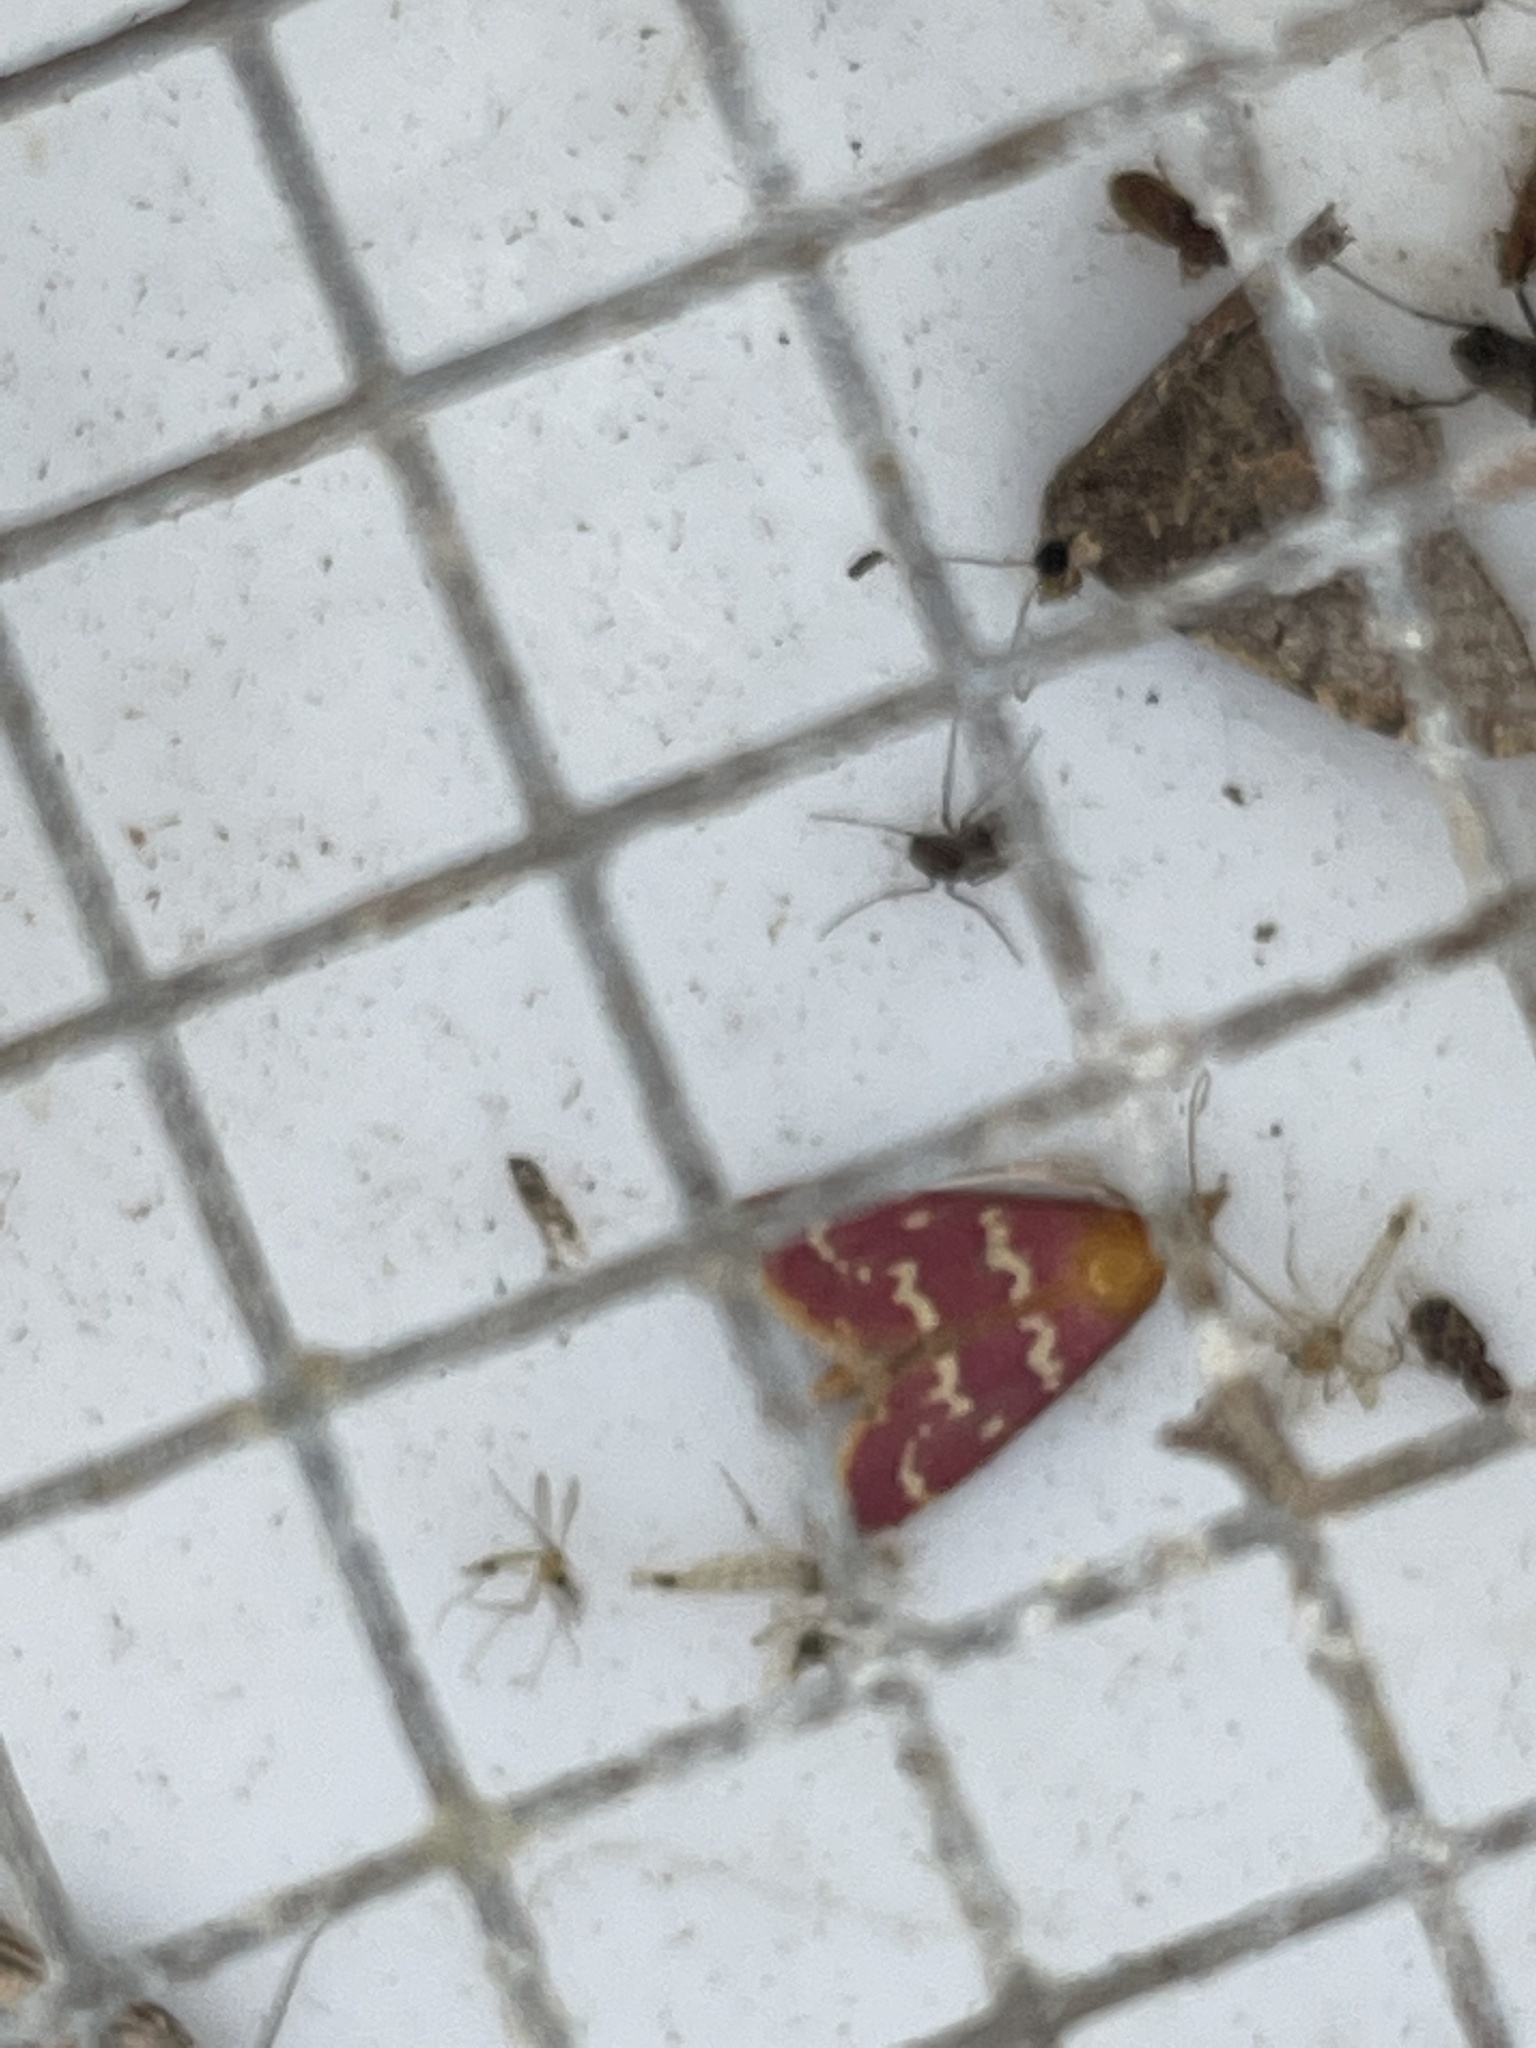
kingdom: Animalia
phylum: Arthropoda
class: Insecta
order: Lepidoptera
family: Crambidae
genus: Pyrausta
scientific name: Pyrausta signatalis
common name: Raspberry pyrausta moth
